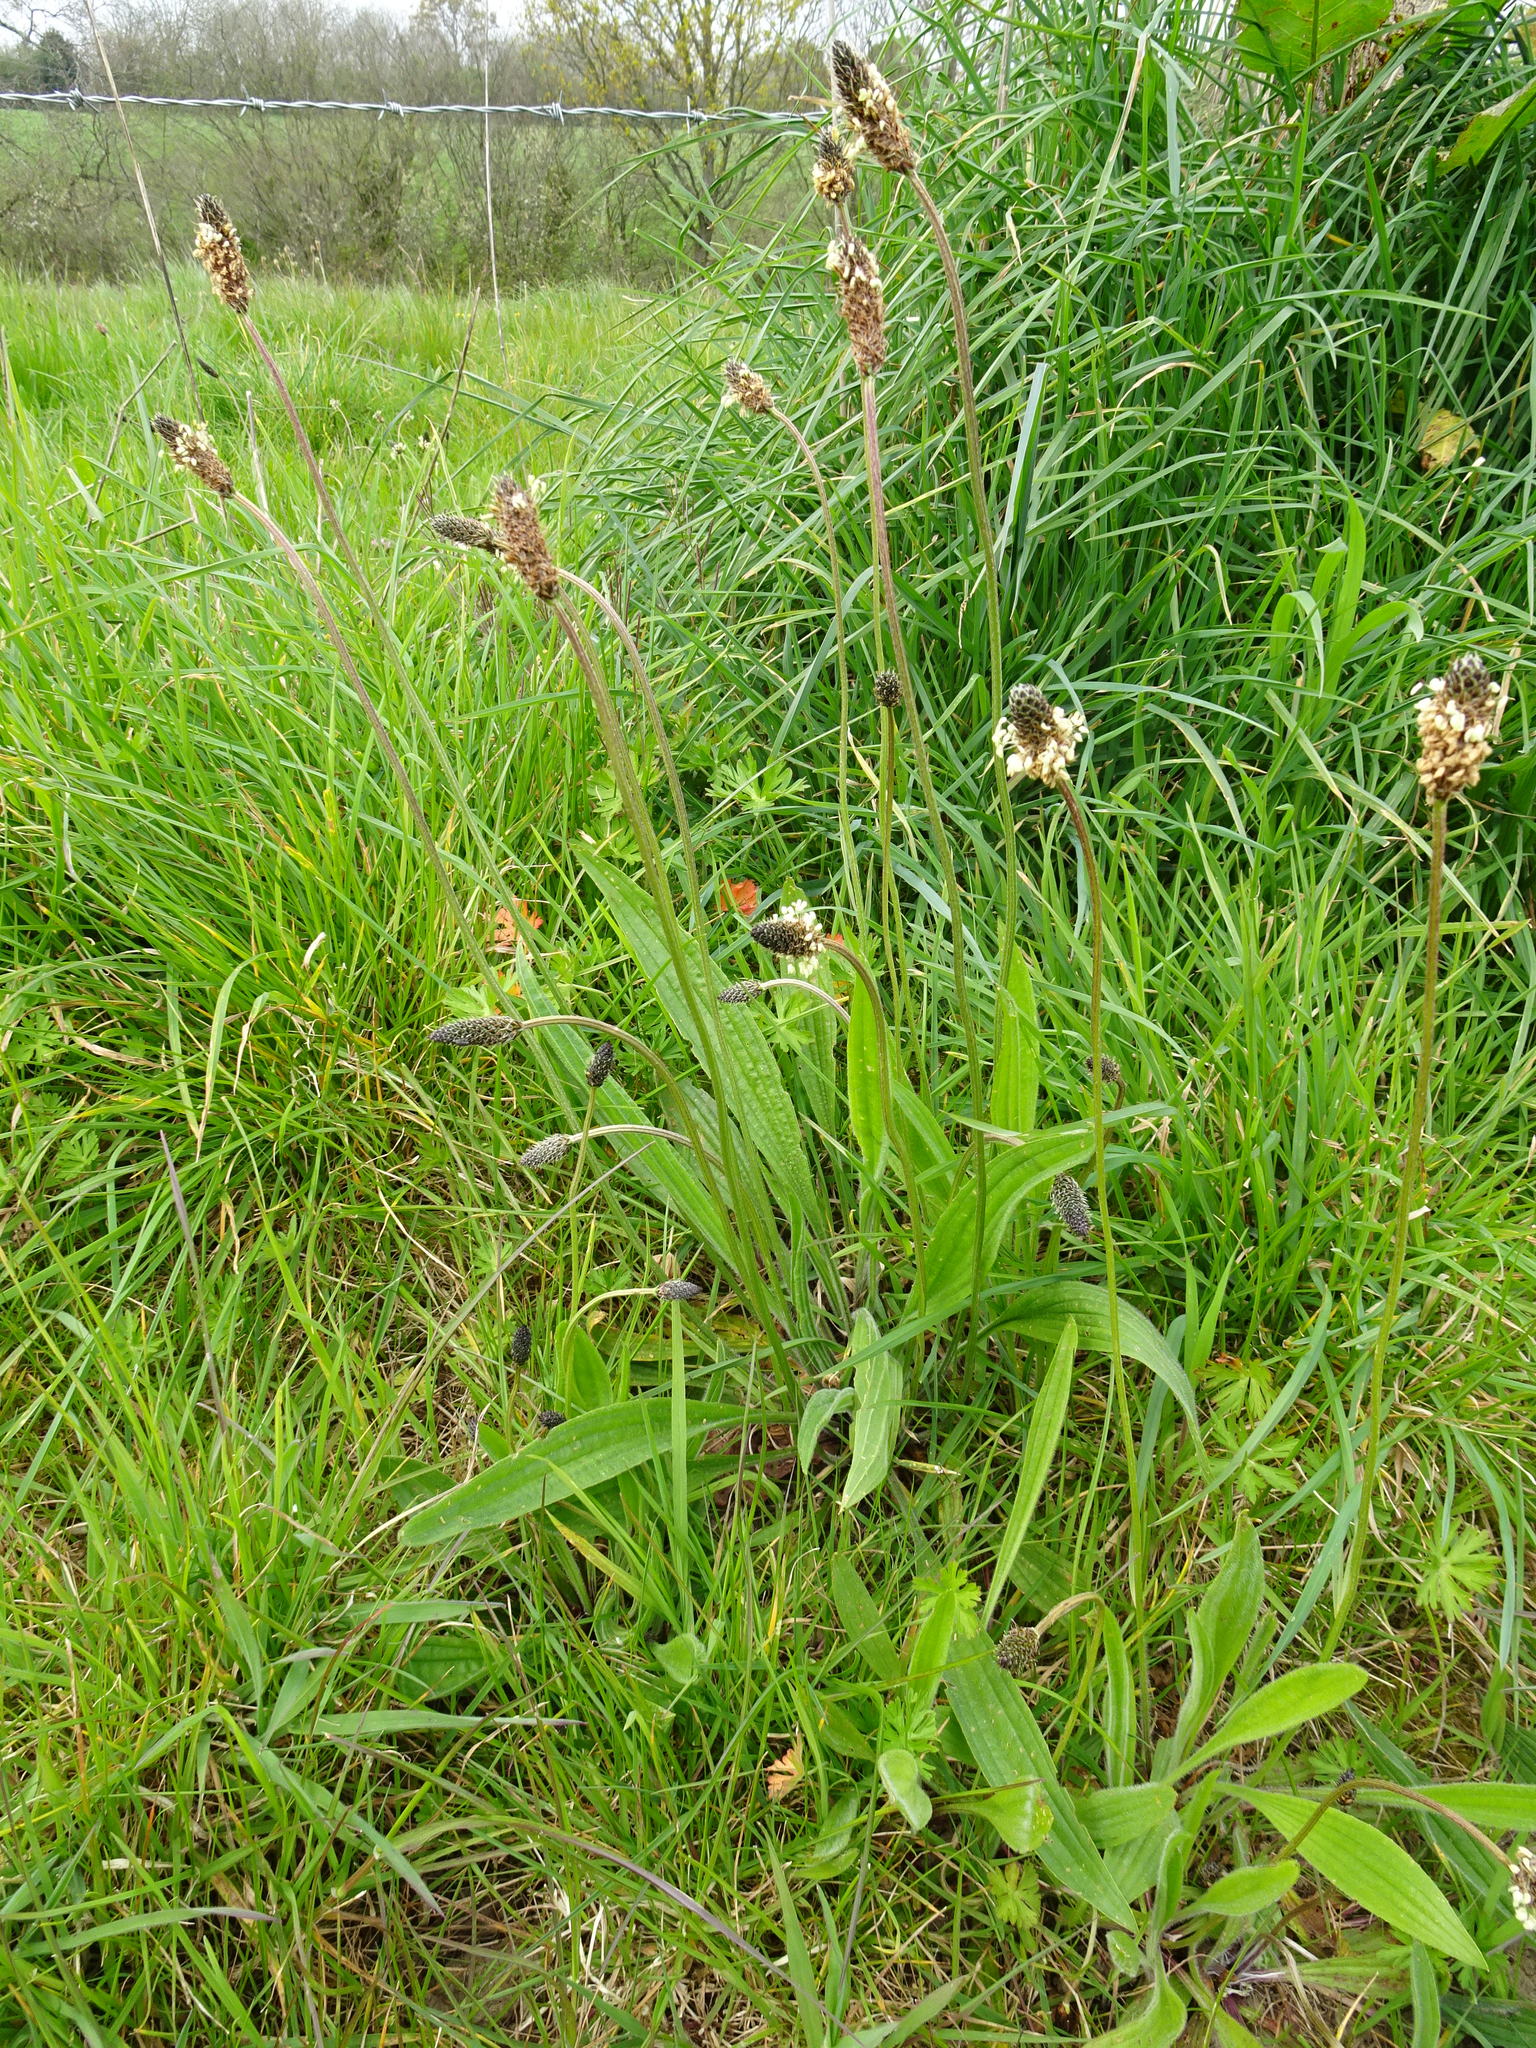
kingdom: Plantae
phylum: Tracheophyta
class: Magnoliopsida
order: Lamiales
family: Plantaginaceae
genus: Plantago
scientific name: Plantago lanceolata
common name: Ribwort plantain
